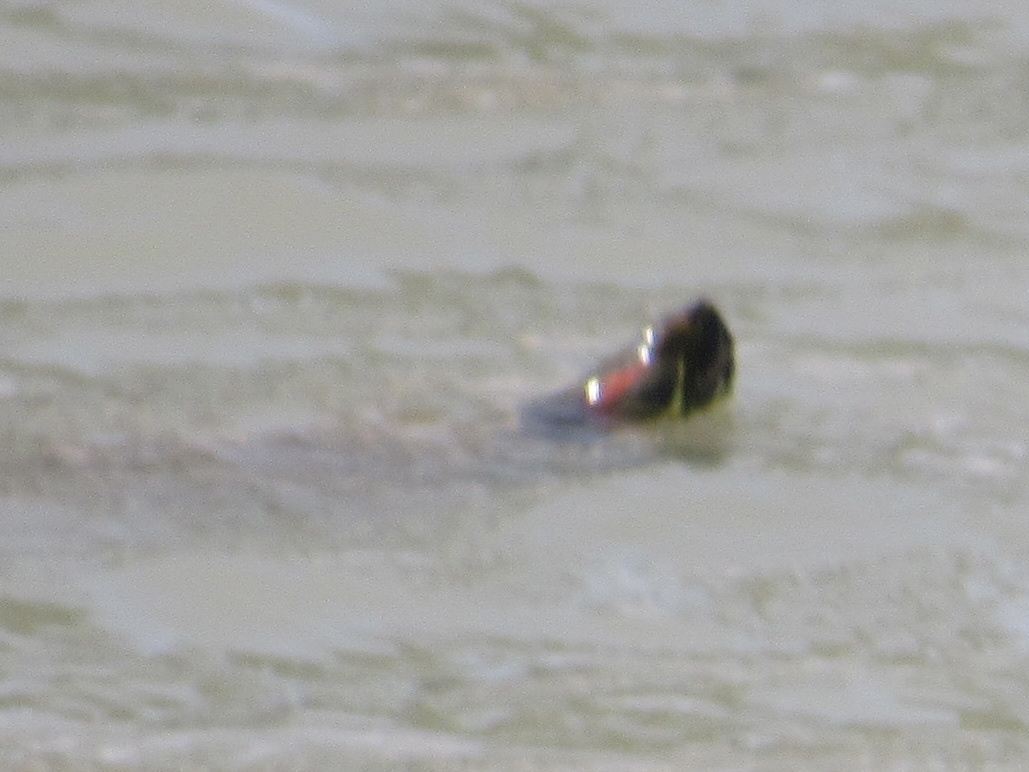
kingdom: Animalia
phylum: Chordata
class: Testudines
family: Emydidae
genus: Trachemys
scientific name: Trachemys scripta
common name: Slider
